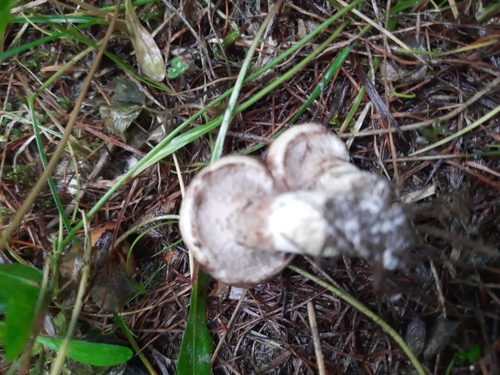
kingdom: Fungi
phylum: Basidiomycota
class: Agaricomycetes
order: Boletales
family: Suillaceae
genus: Suillus
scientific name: Suillus viscidus
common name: Sticky bolete
